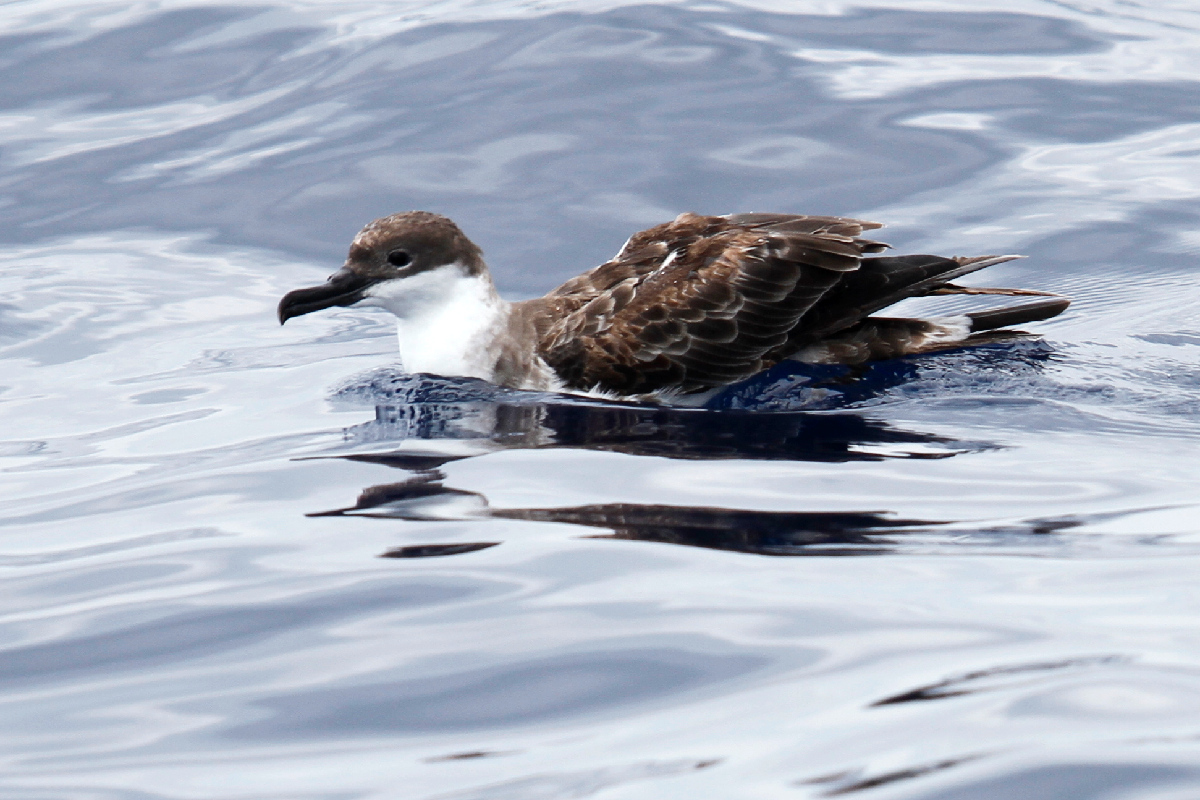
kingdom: Animalia
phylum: Chordata
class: Aves
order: Procellariiformes
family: Procellariidae
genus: Puffinus
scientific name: Puffinus gravis
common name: Great shearwater
